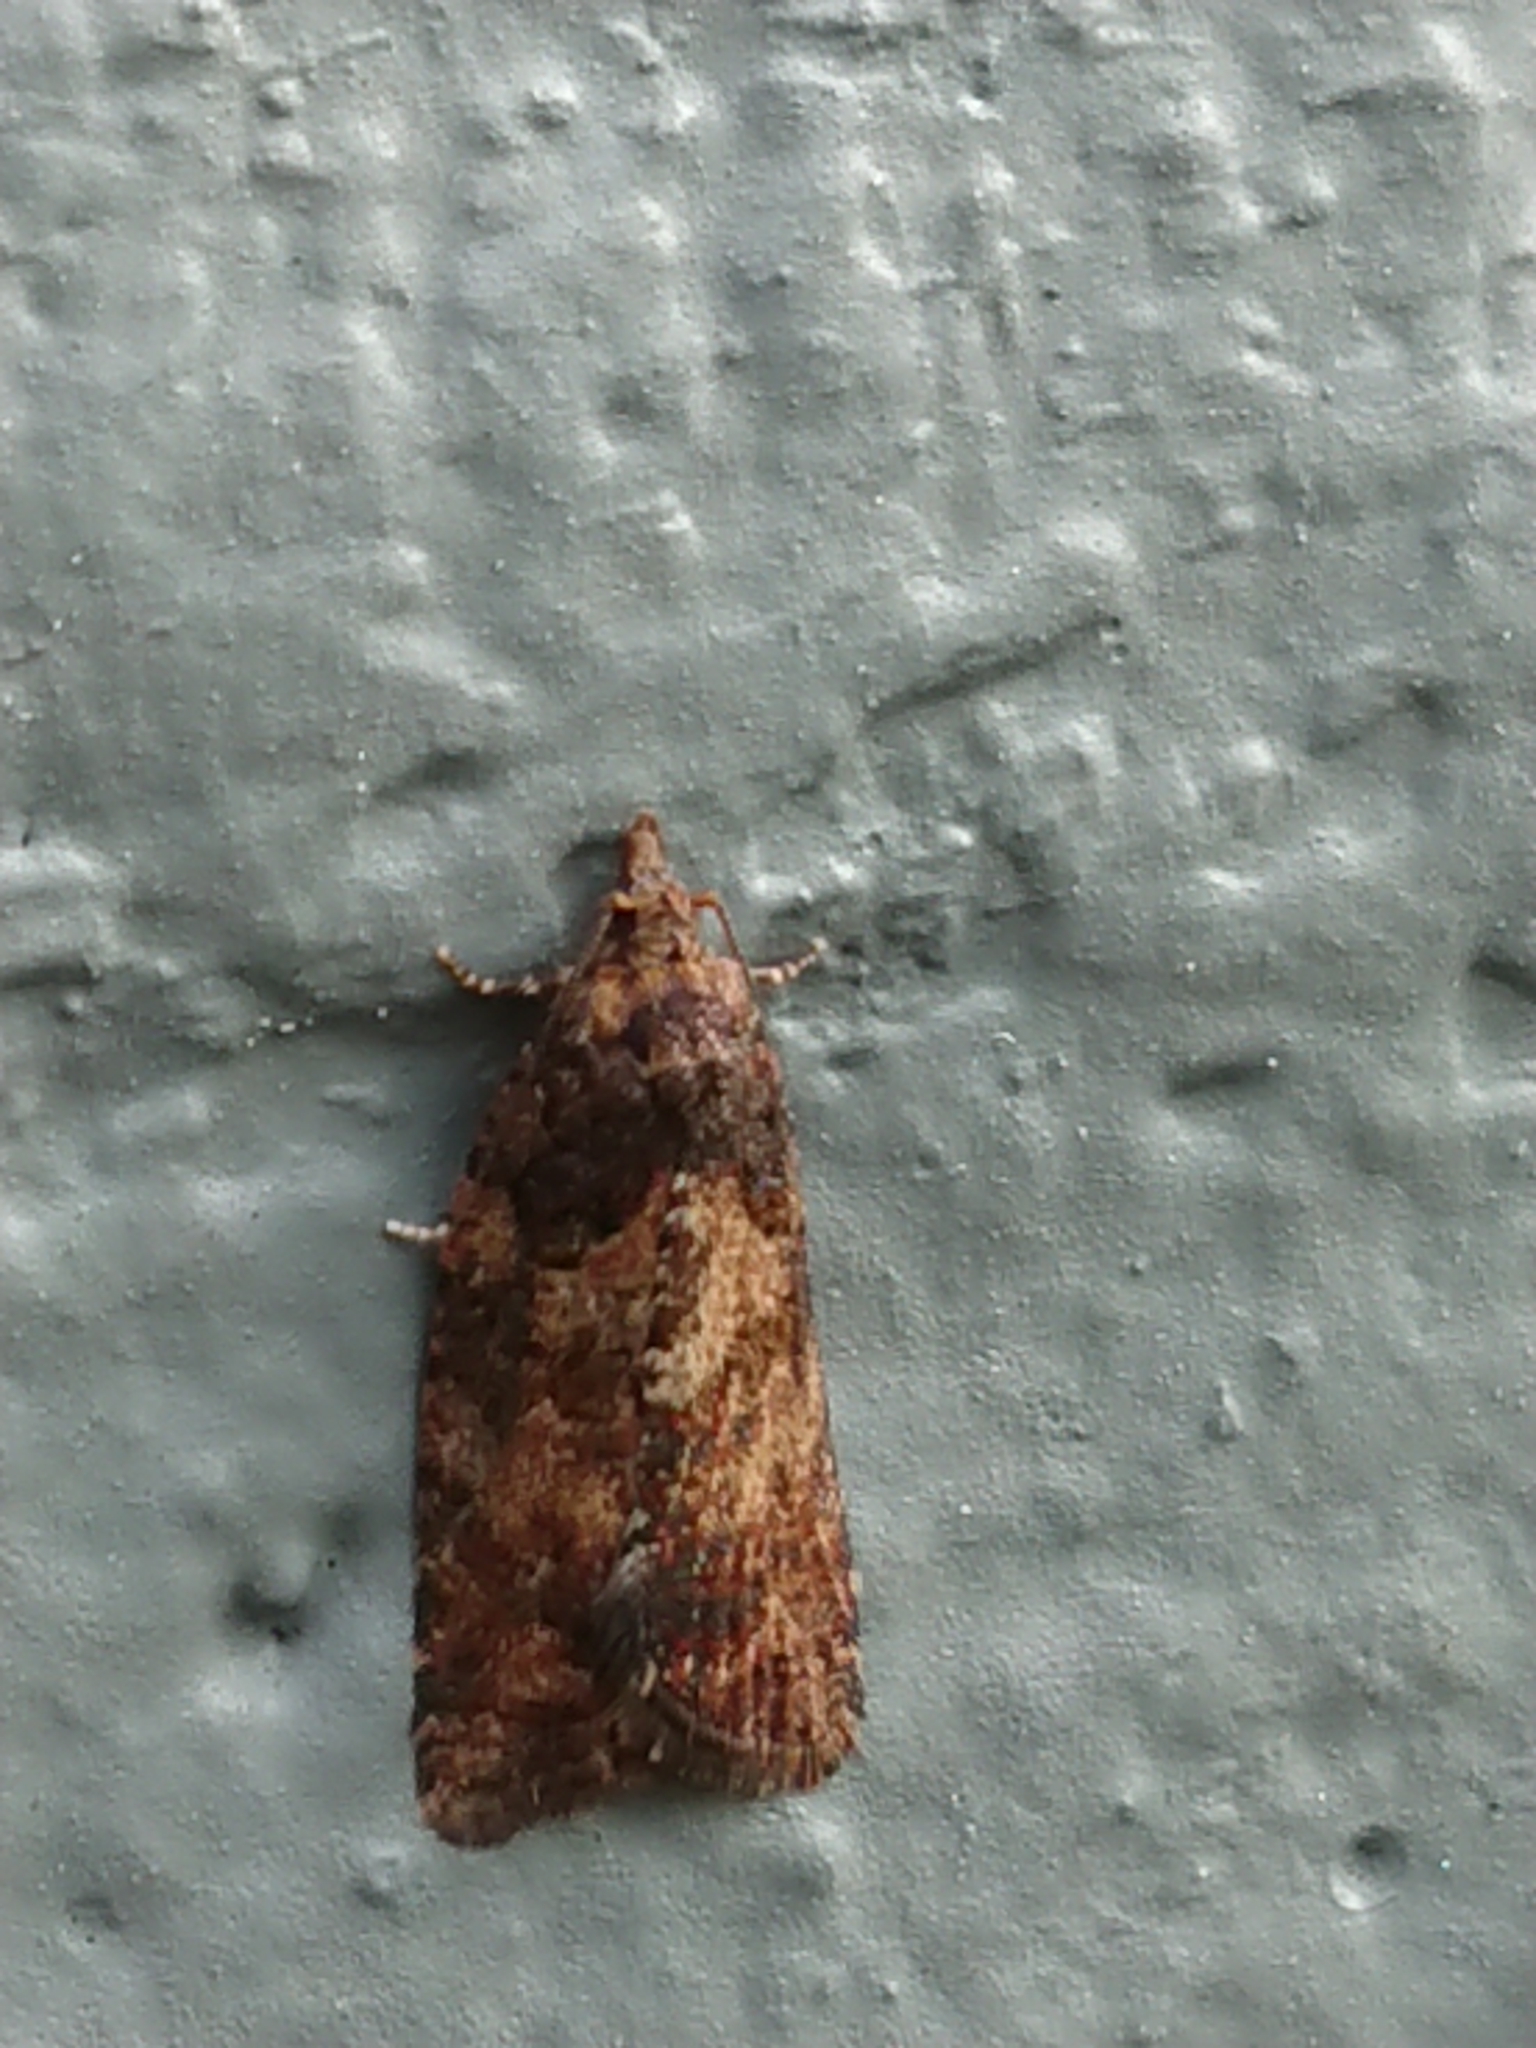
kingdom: Animalia
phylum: Arthropoda
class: Insecta
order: Lepidoptera
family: Tortricidae
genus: Capua
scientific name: Capua intractana
